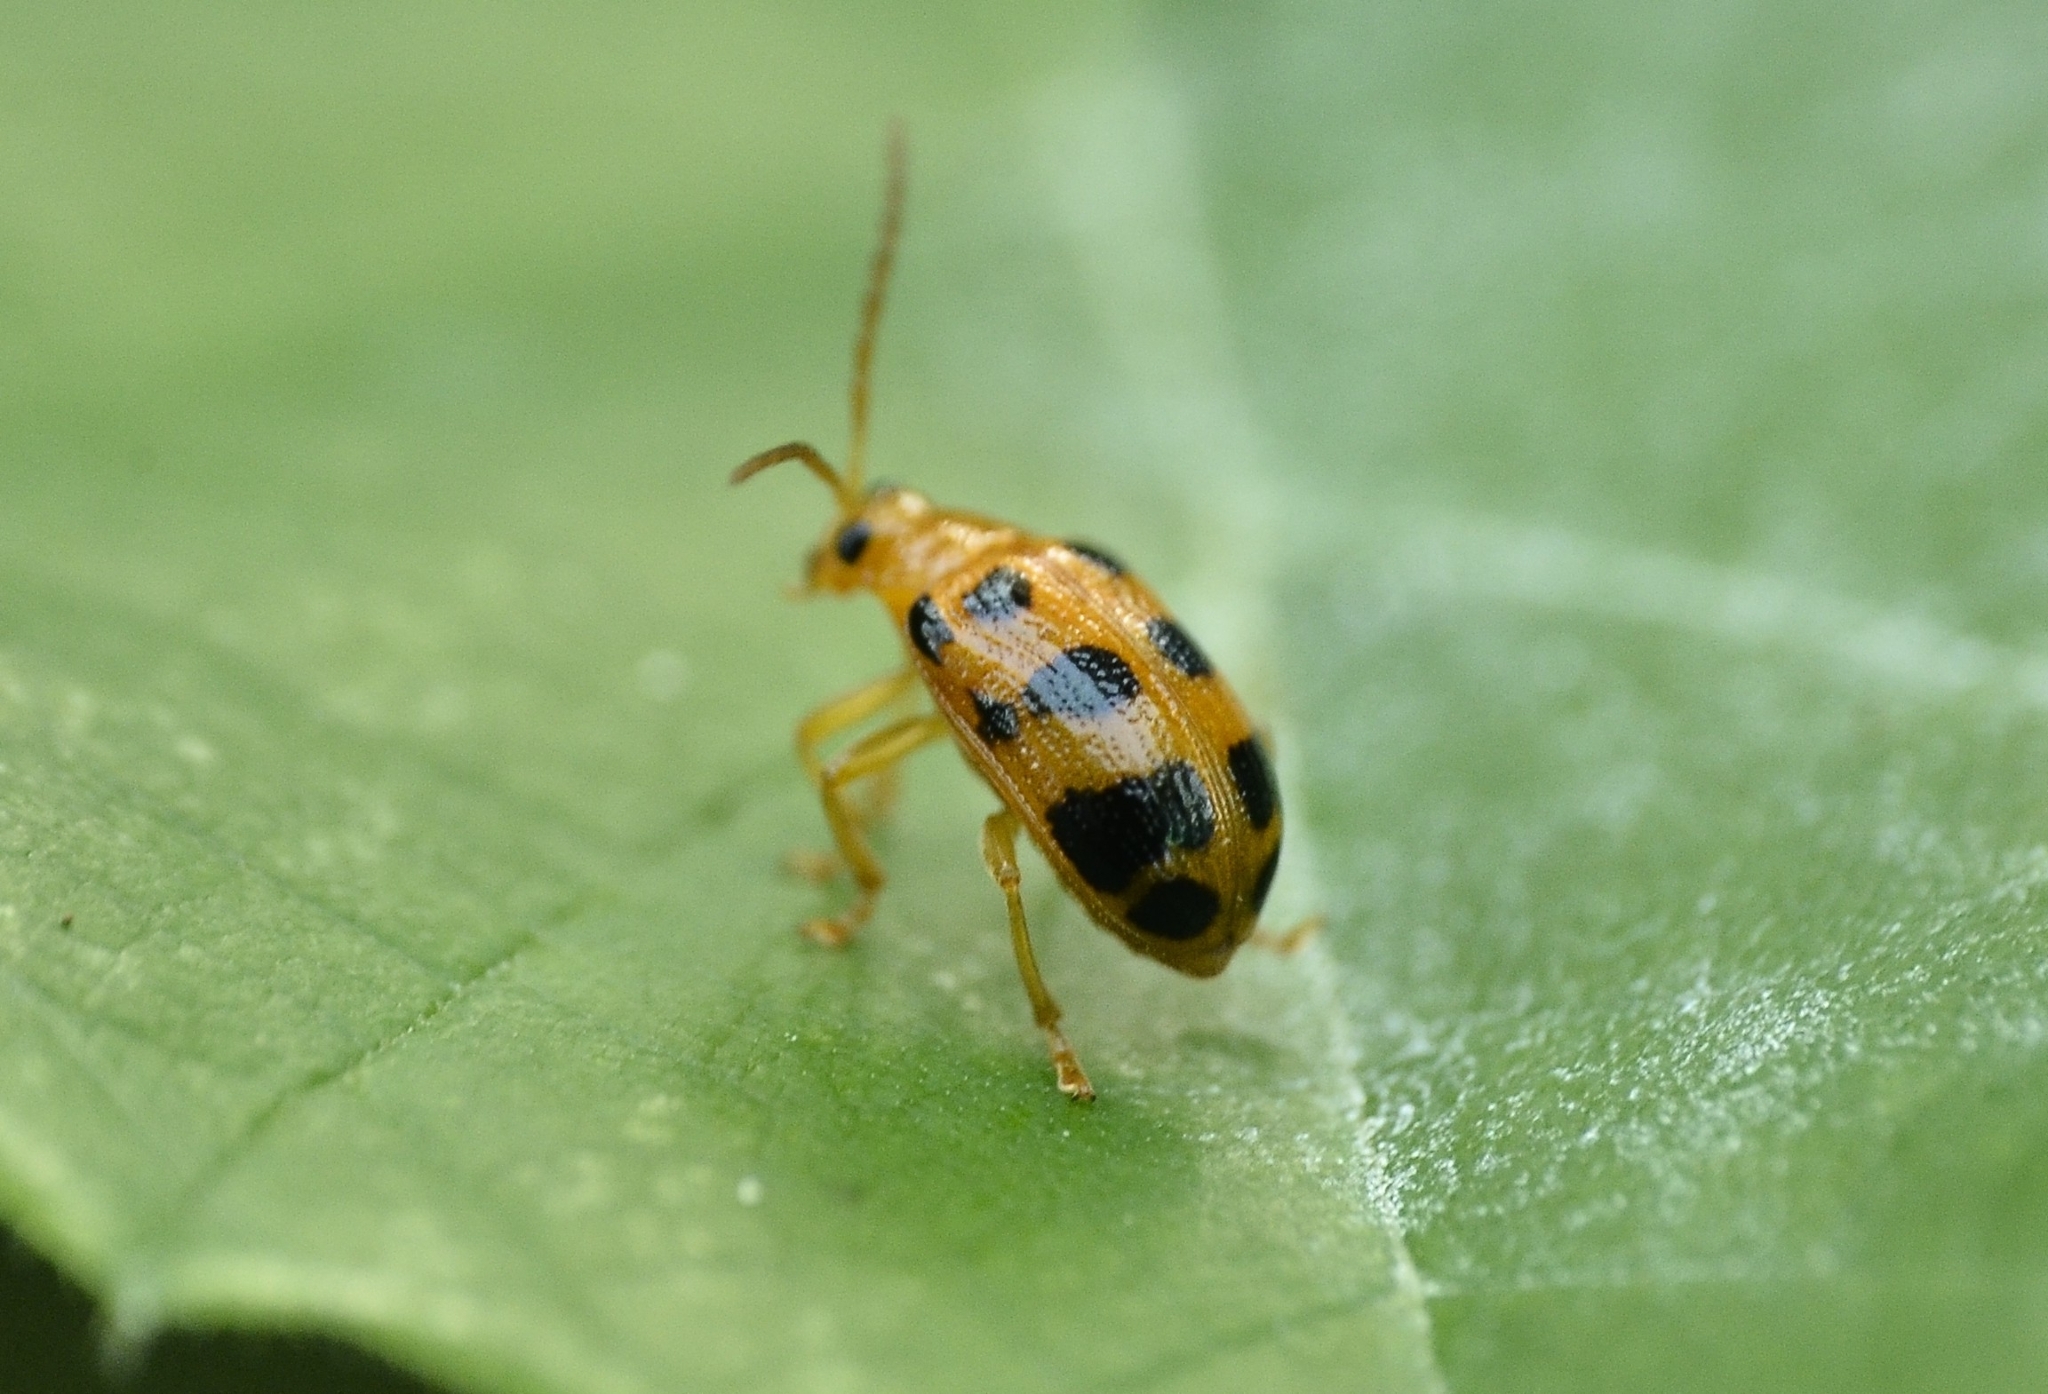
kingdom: Animalia
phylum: Arthropoda
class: Insecta
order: Coleoptera
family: Chrysomelidae
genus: Sphenoraia
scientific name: Sphenoraia
